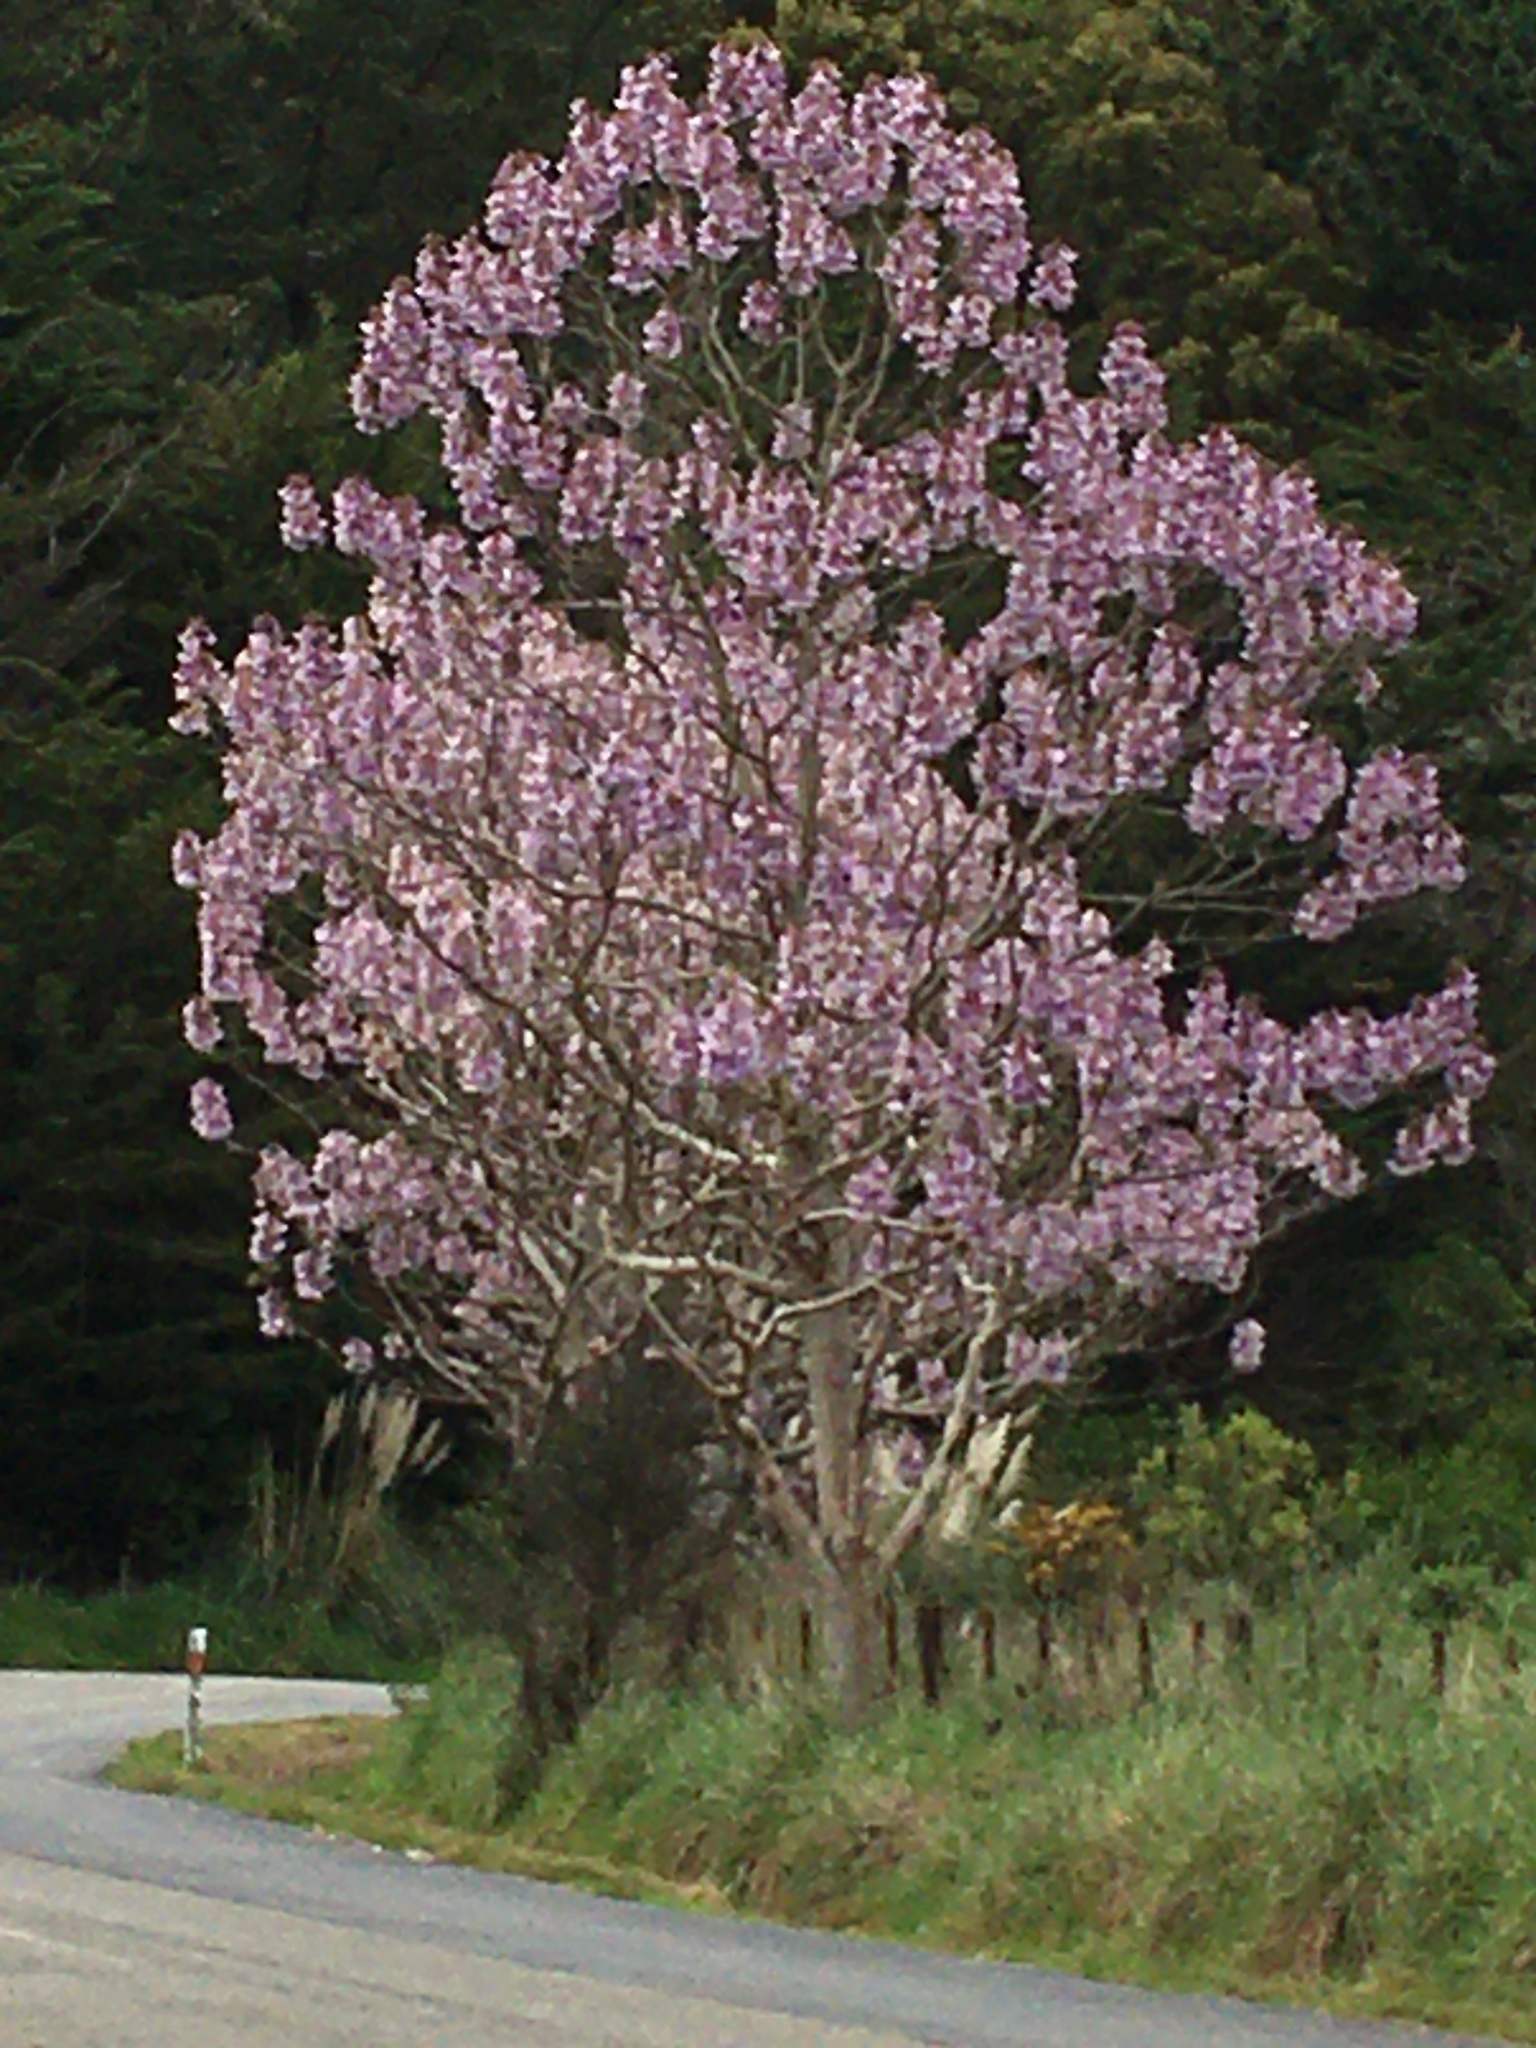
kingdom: Plantae
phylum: Tracheophyta
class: Magnoliopsida
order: Lamiales
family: Paulowniaceae
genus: Paulownia
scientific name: Paulownia tomentosa
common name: Foxglove-tree
